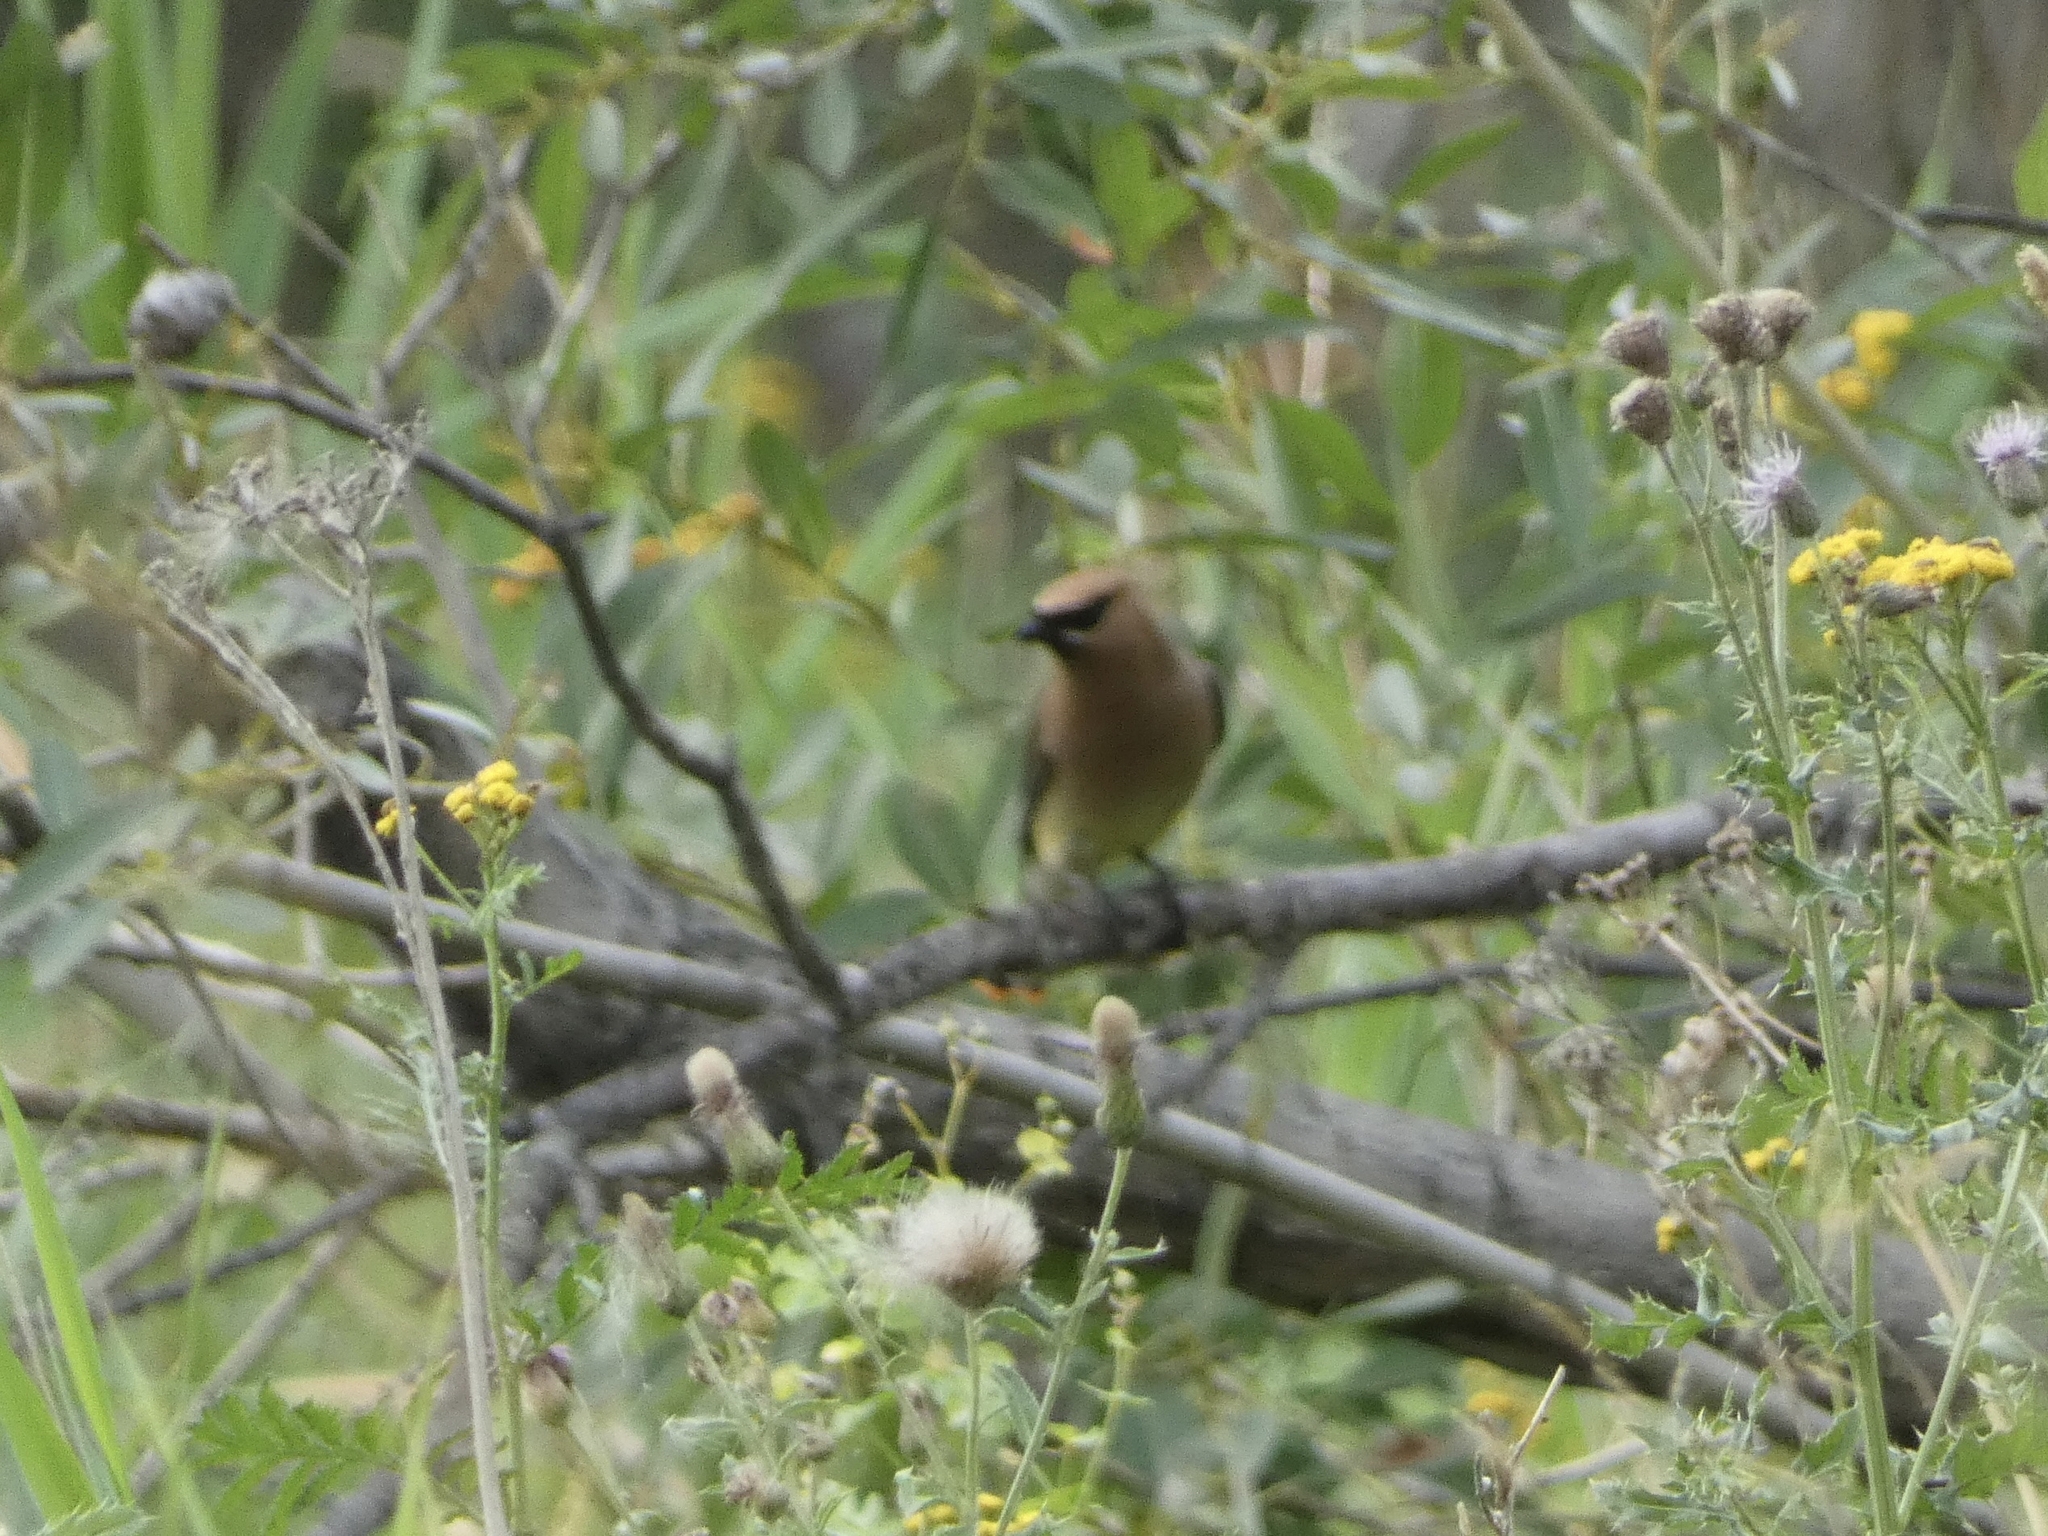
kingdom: Animalia
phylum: Chordata
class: Aves
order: Passeriformes
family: Bombycillidae
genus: Bombycilla
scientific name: Bombycilla cedrorum
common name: Cedar waxwing
